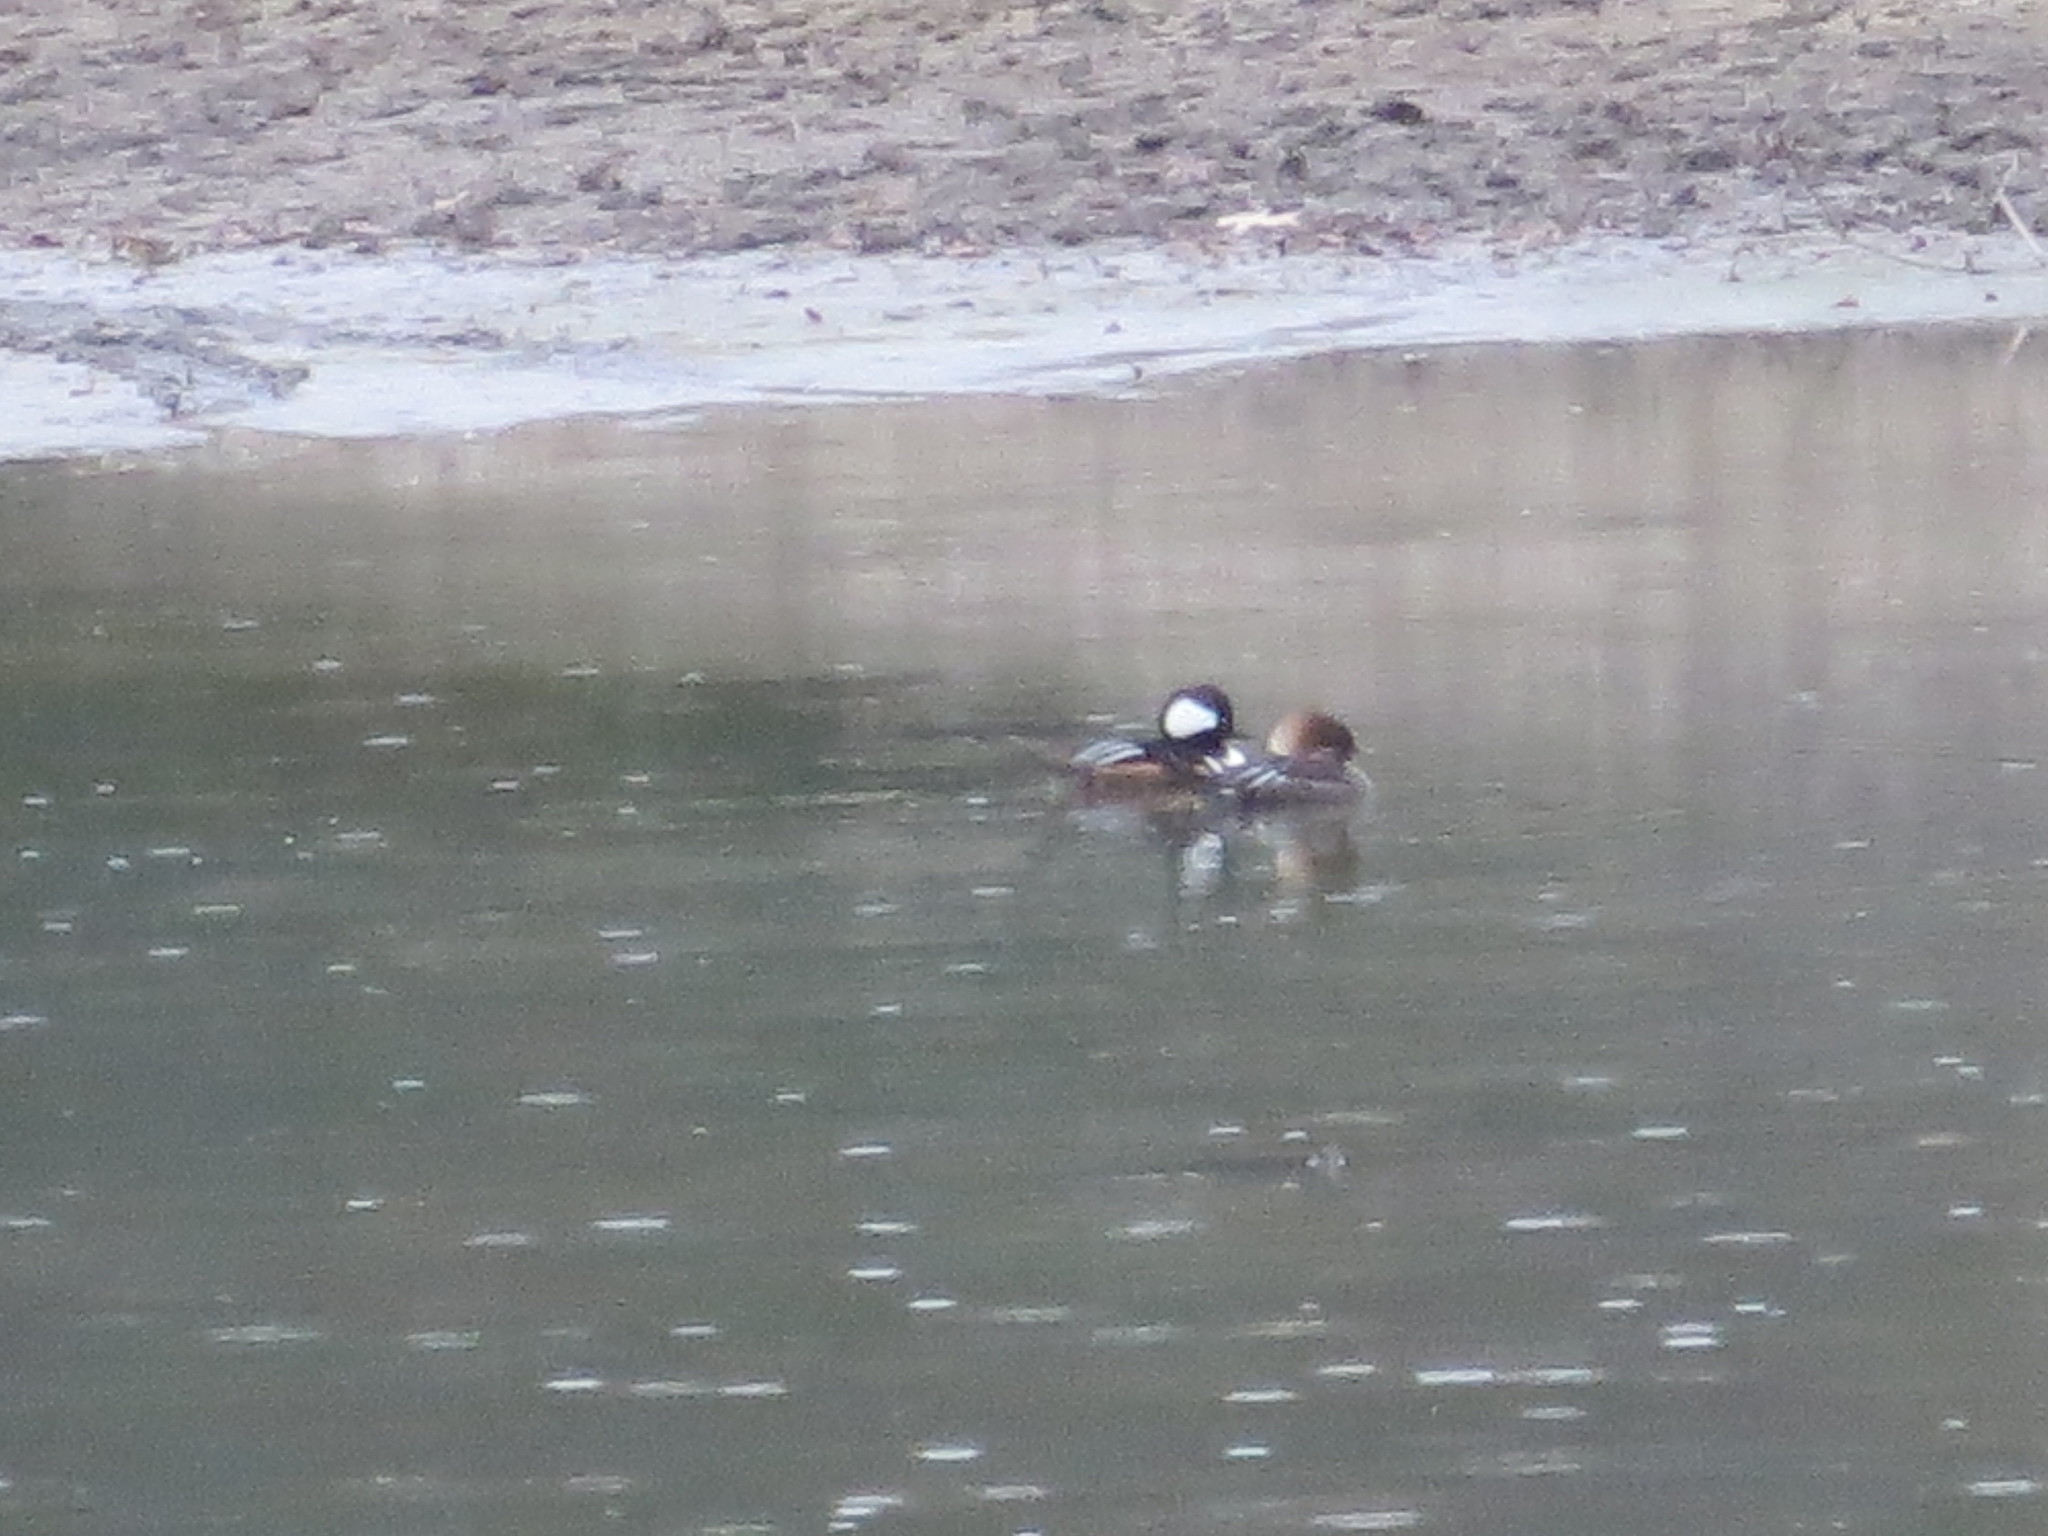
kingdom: Animalia
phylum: Chordata
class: Aves
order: Anseriformes
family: Anatidae
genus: Lophodytes
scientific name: Lophodytes cucullatus
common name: Hooded merganser
